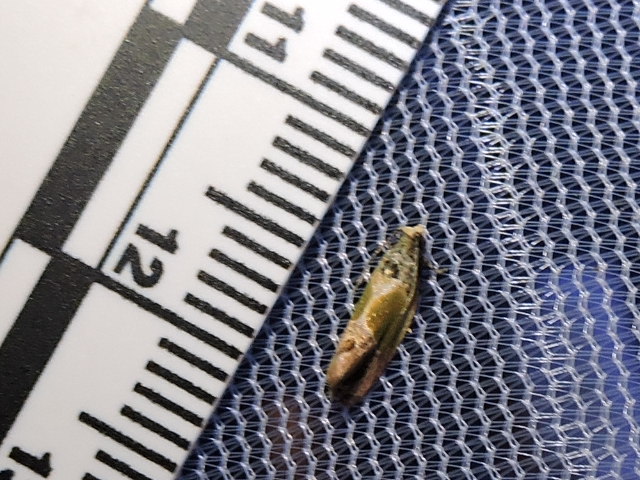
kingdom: Animalia
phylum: Arthropoda
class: Insecta
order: Lepidoptera
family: Tortricidae
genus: Eumarozia
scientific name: Eumarozia malachitana
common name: Sculptured moth
